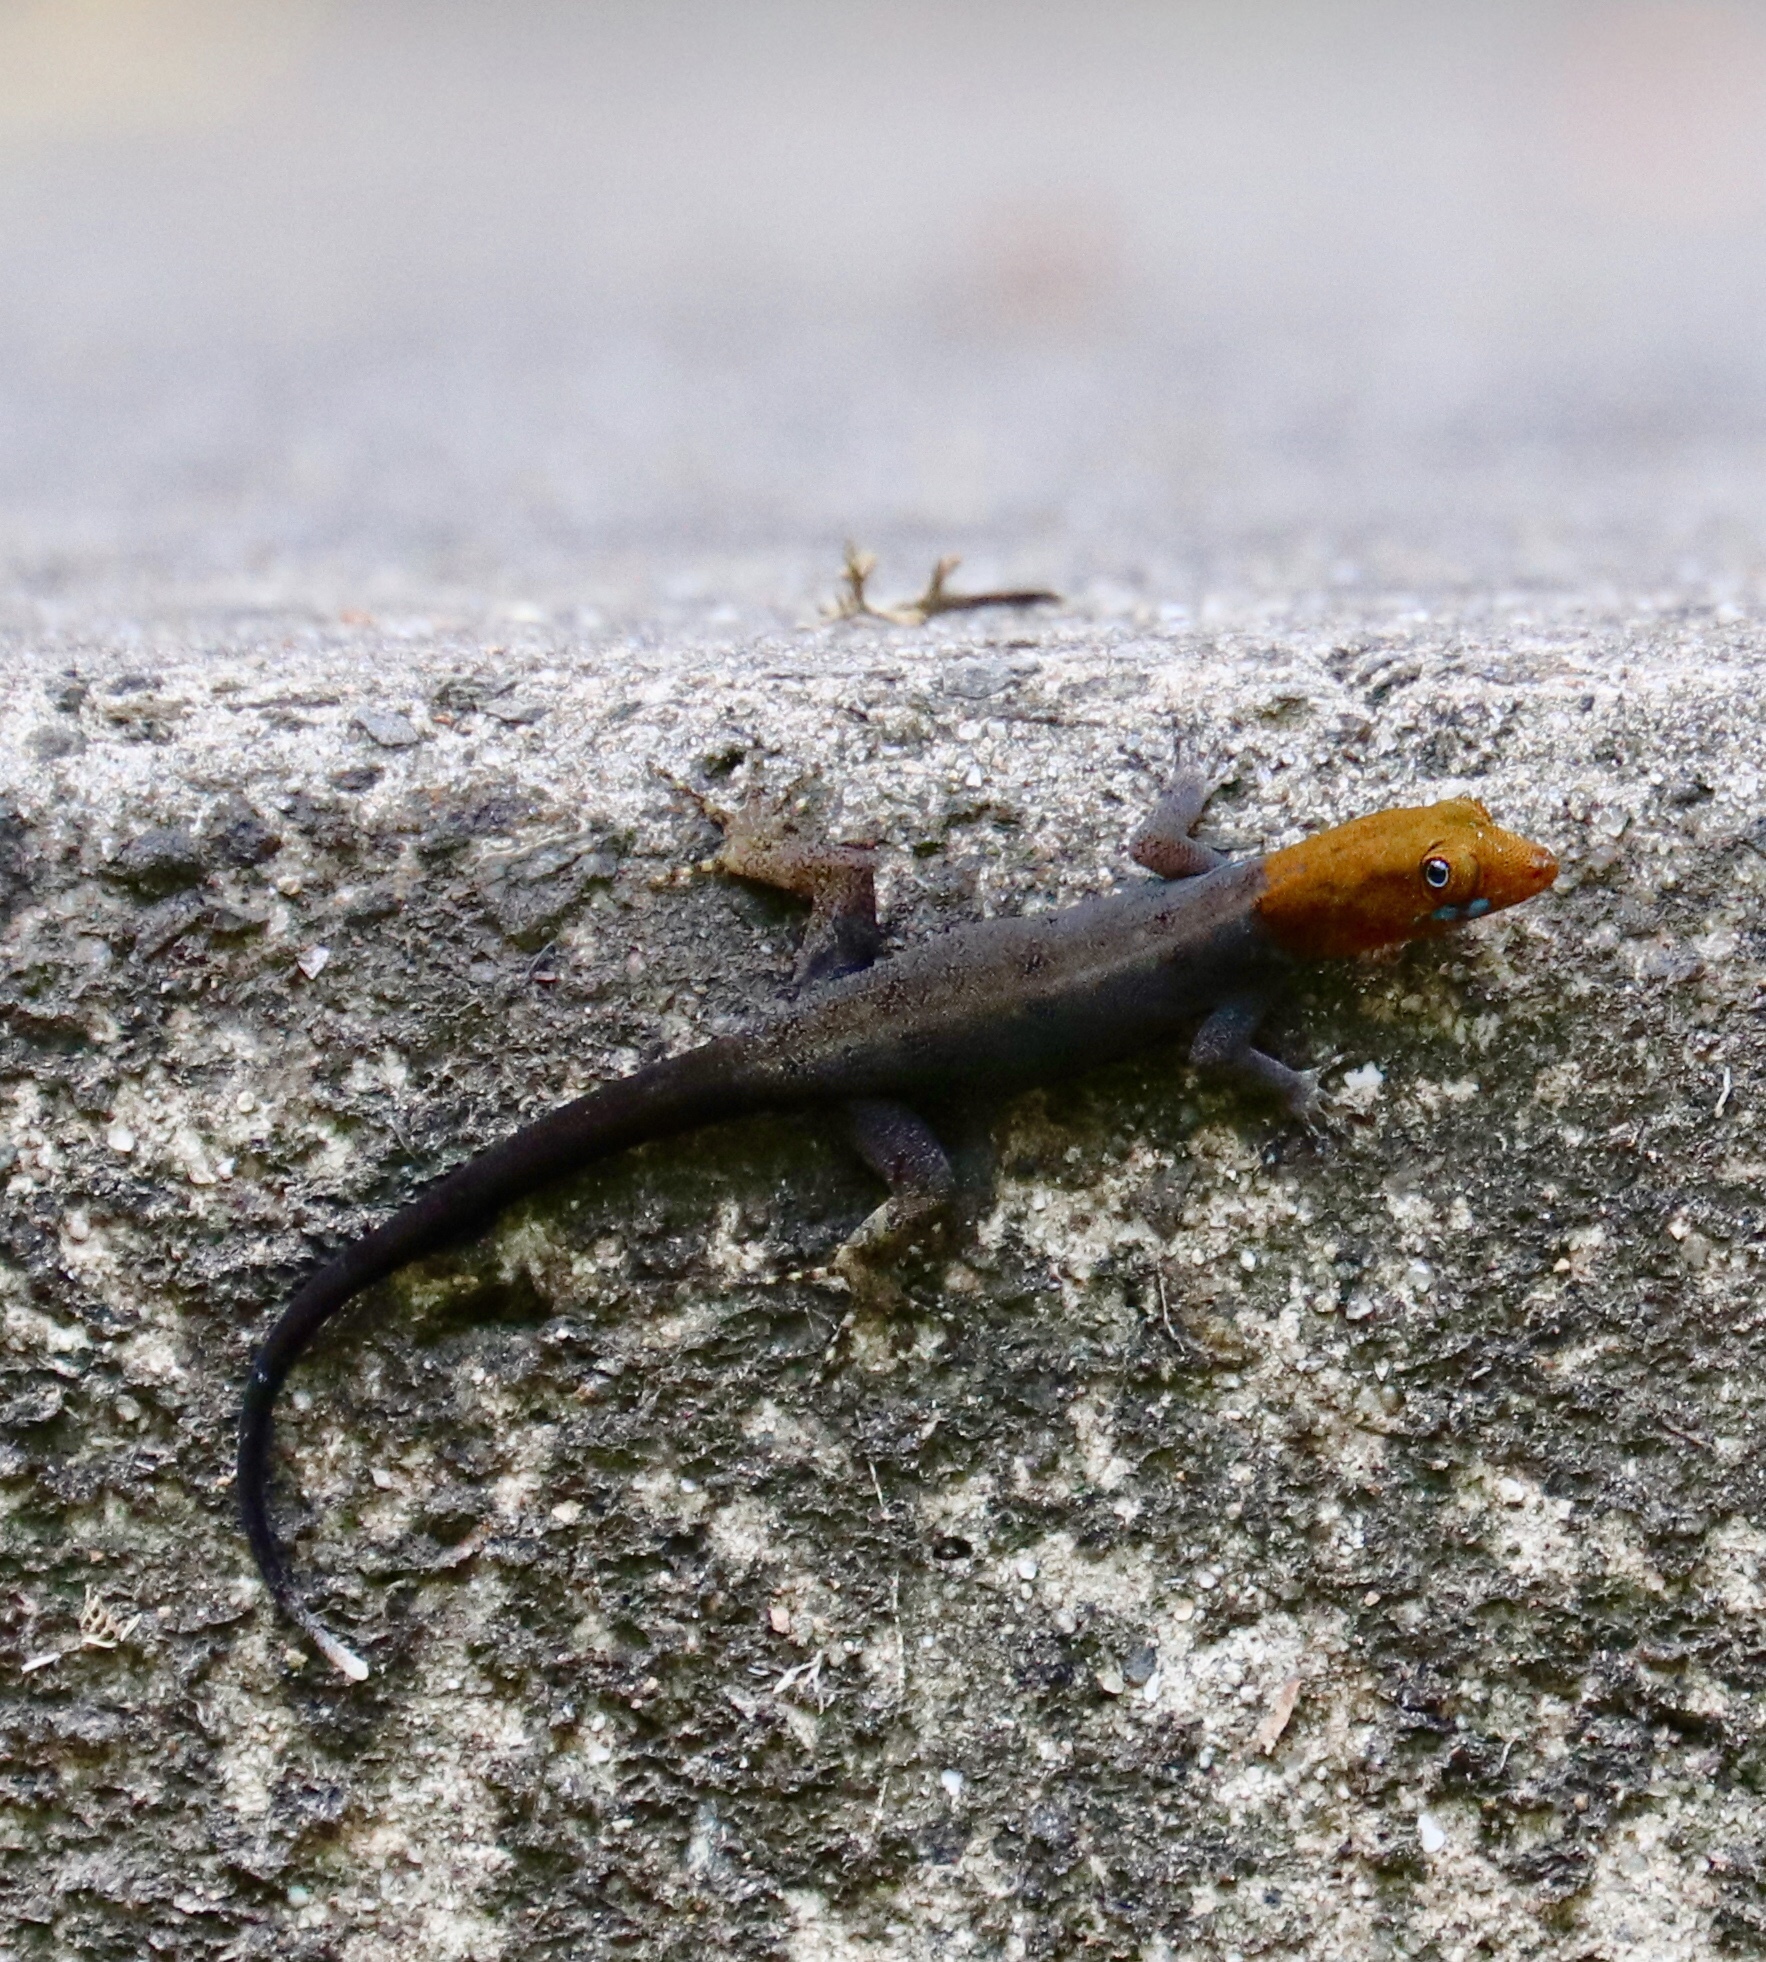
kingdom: Animalia
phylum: Chordata
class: Squamata
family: Sphaerodactylidae
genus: Gonatodes
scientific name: Gonatodes albogularis
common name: Yellow-headed gecko
